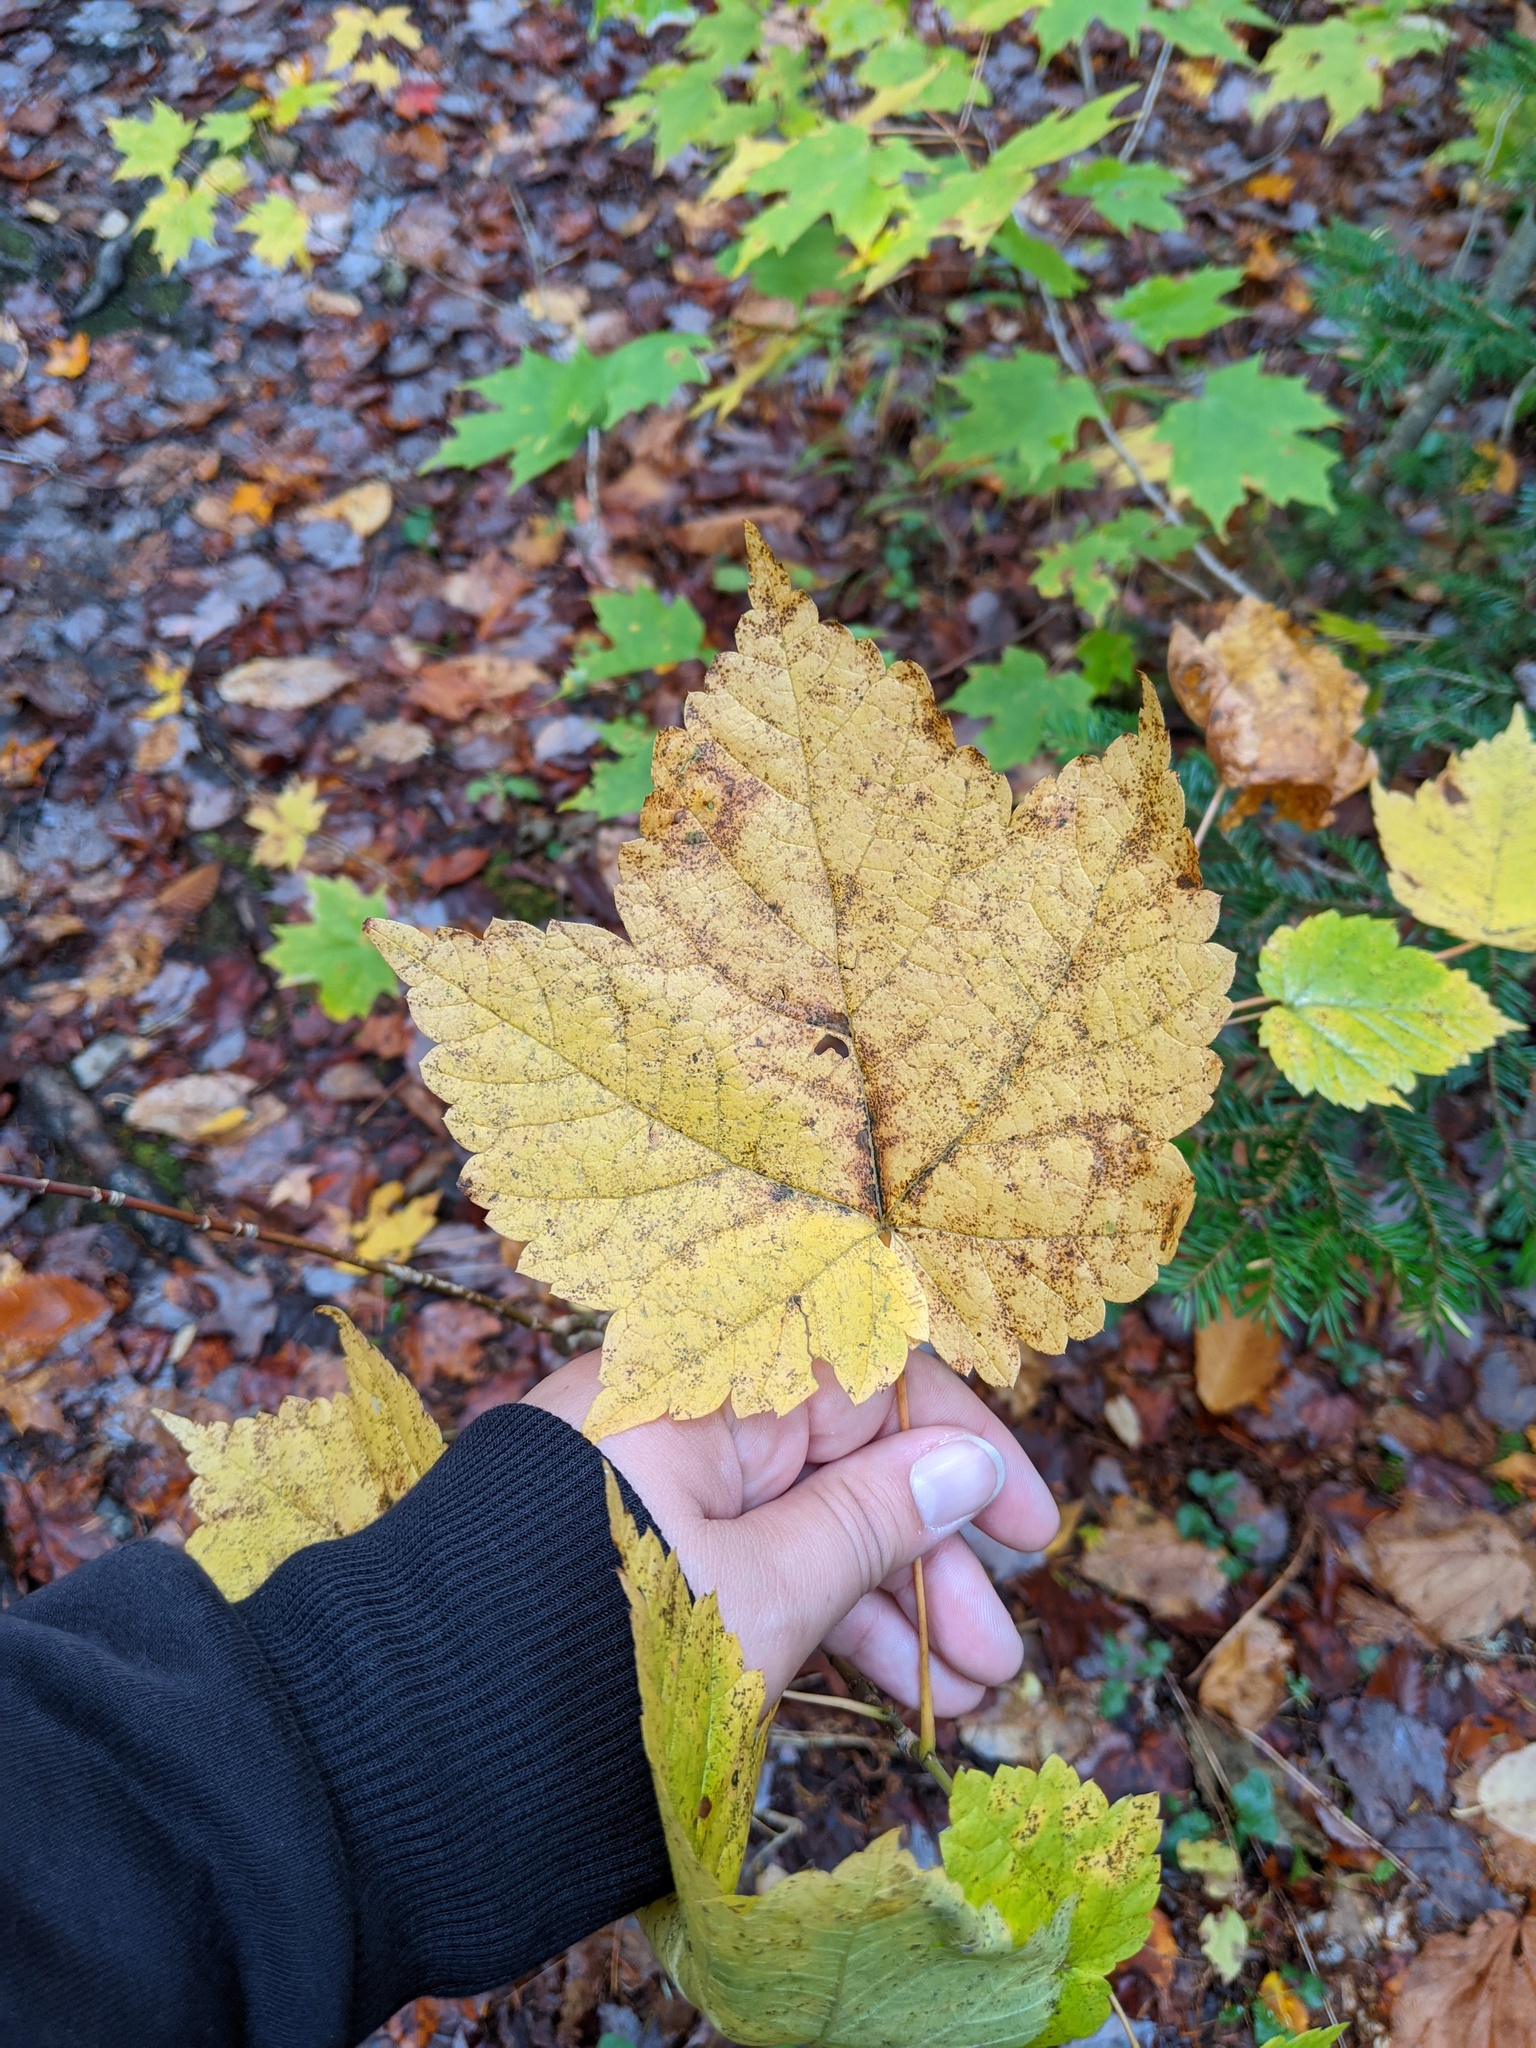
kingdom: Plantae
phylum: Tracheophyta
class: Magnoliopsida
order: Sapindales
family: Sapindaceae
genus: Acer
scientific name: Acer spicatum
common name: Mountain maple
